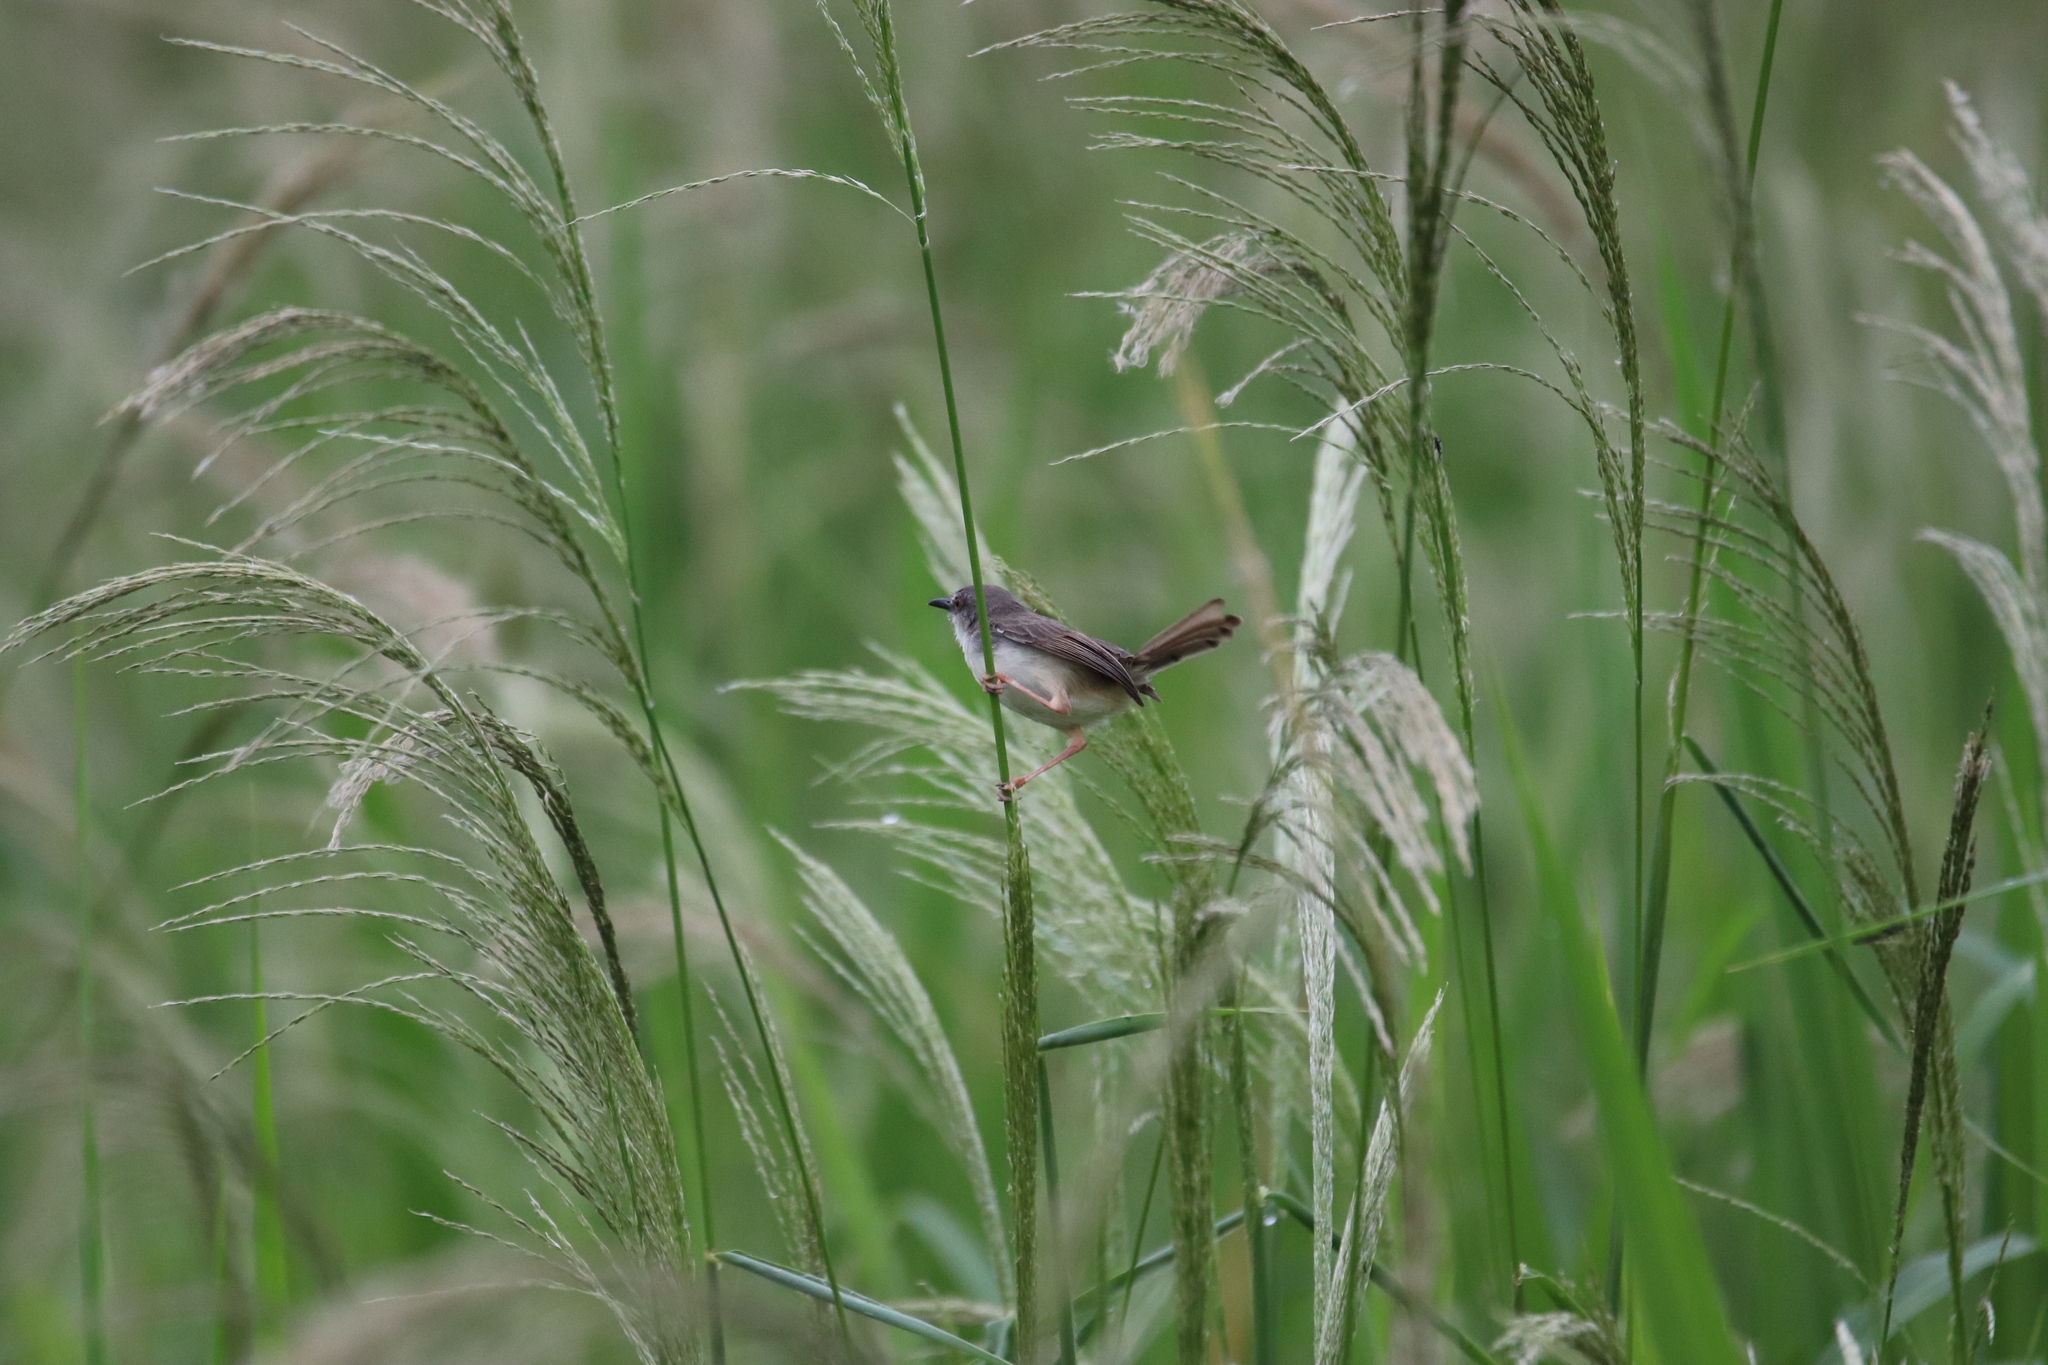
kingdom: Animalia
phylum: Chordata
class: Aves
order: Passeriformes
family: Cisticolidae
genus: Prinia
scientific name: Prinia subflava
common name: Tawny-flanked prinia
